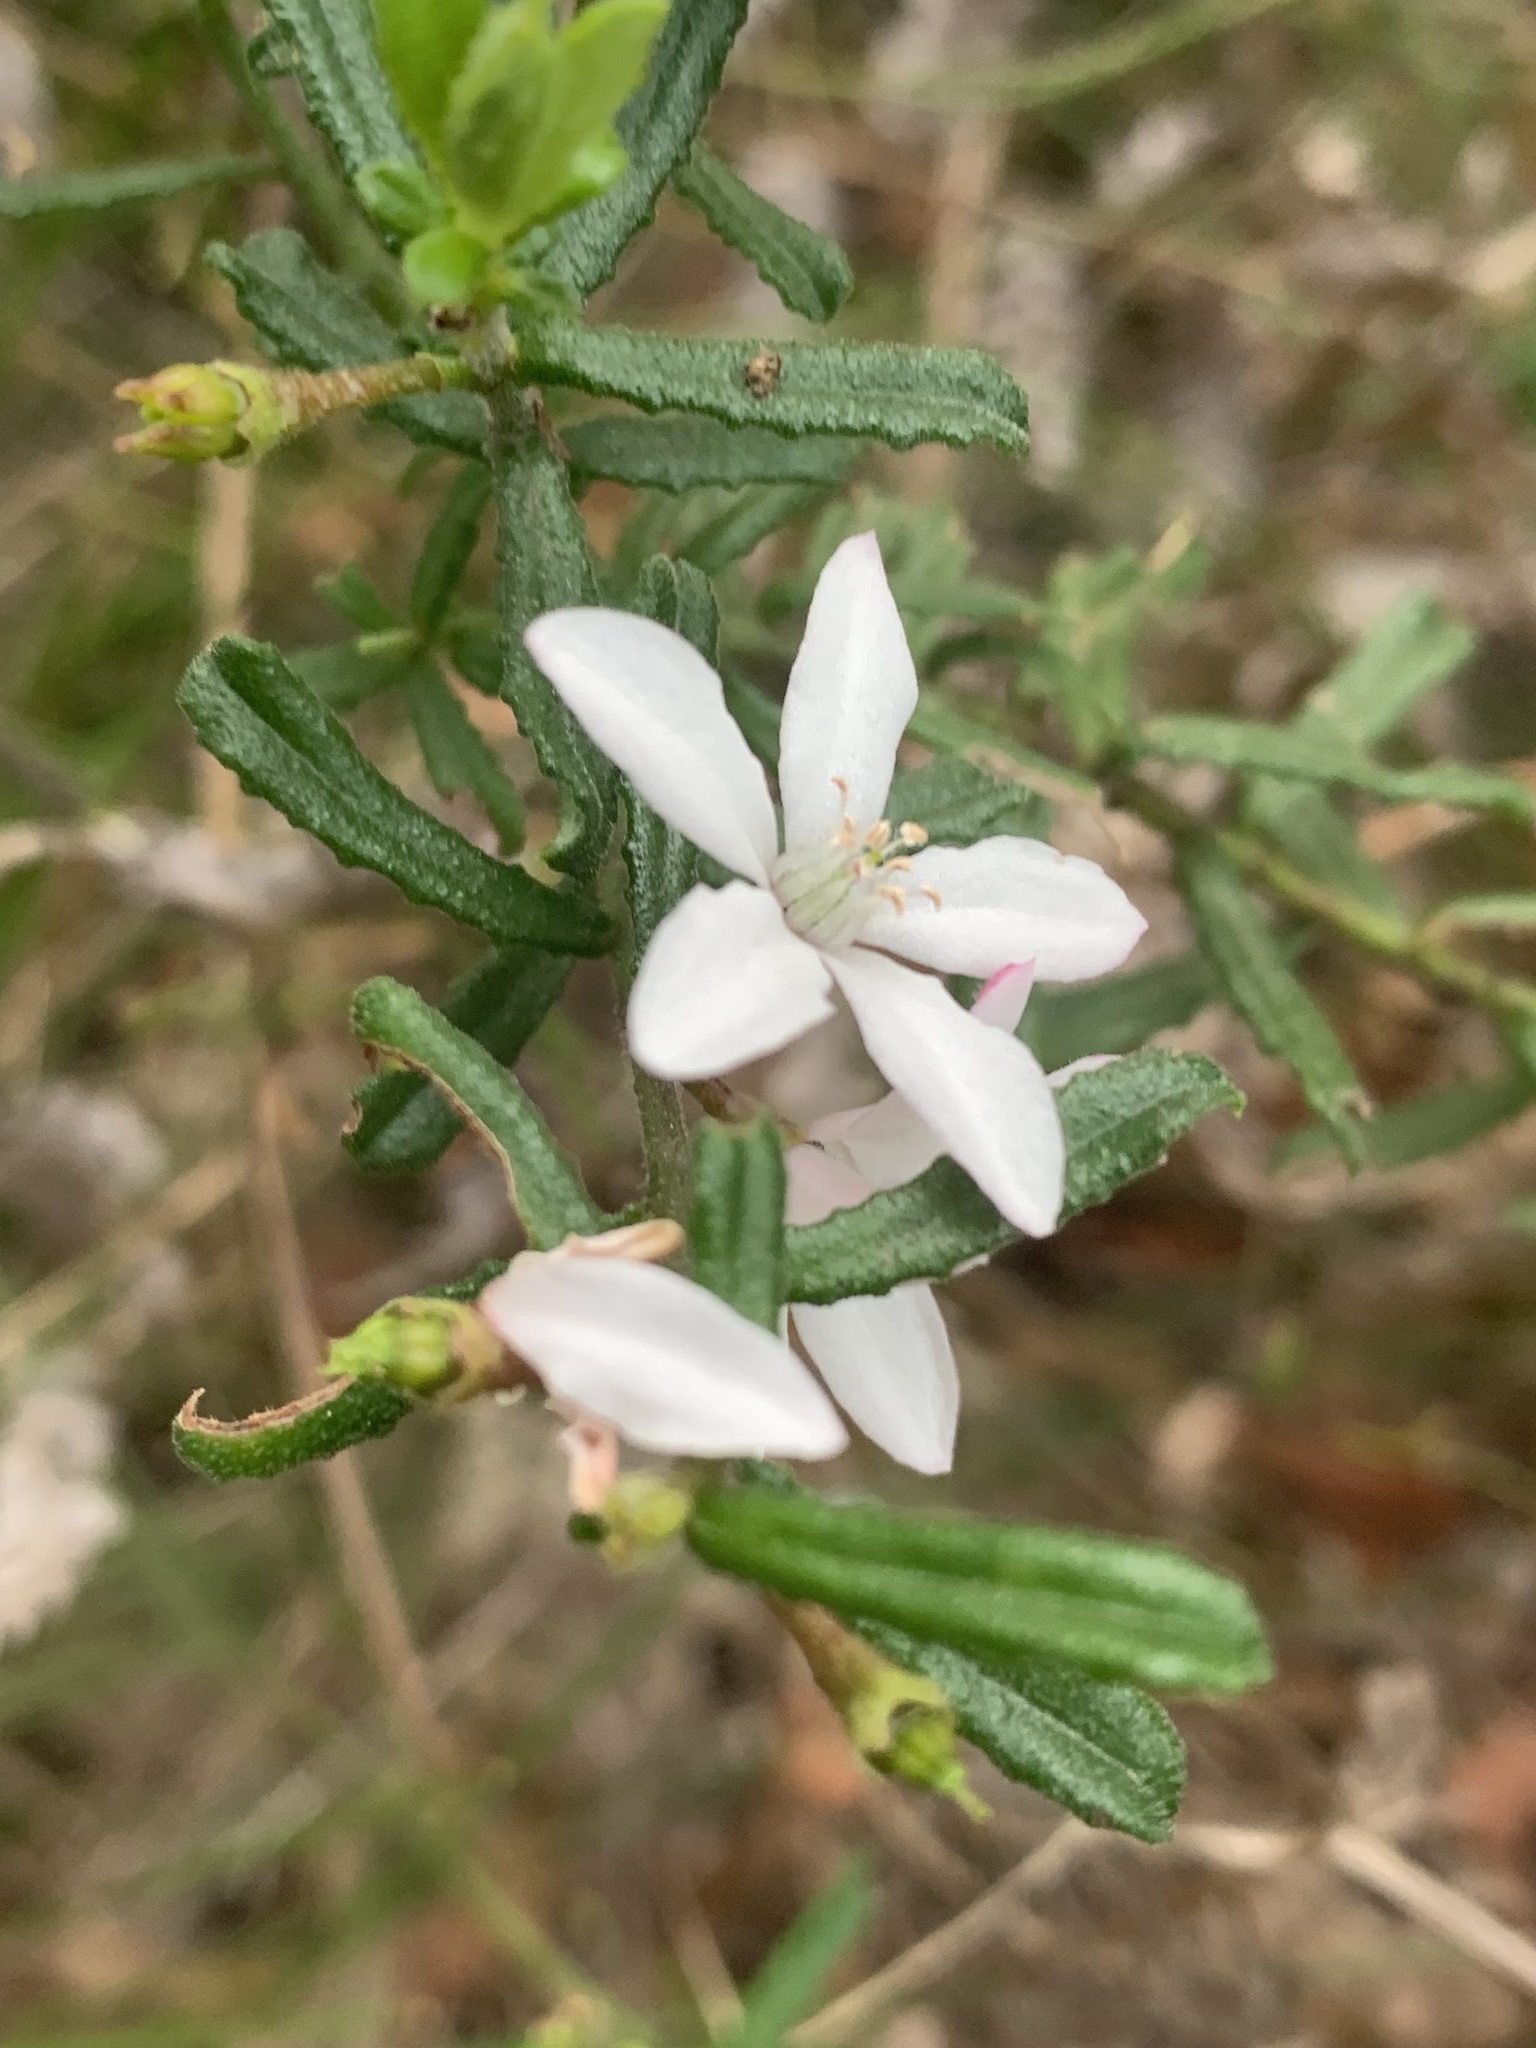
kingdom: Plantae
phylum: Tracheophyta
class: Magnoliopsida
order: Sapindales
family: Rutaceae
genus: Philotheca
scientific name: Philotheca hispidula
